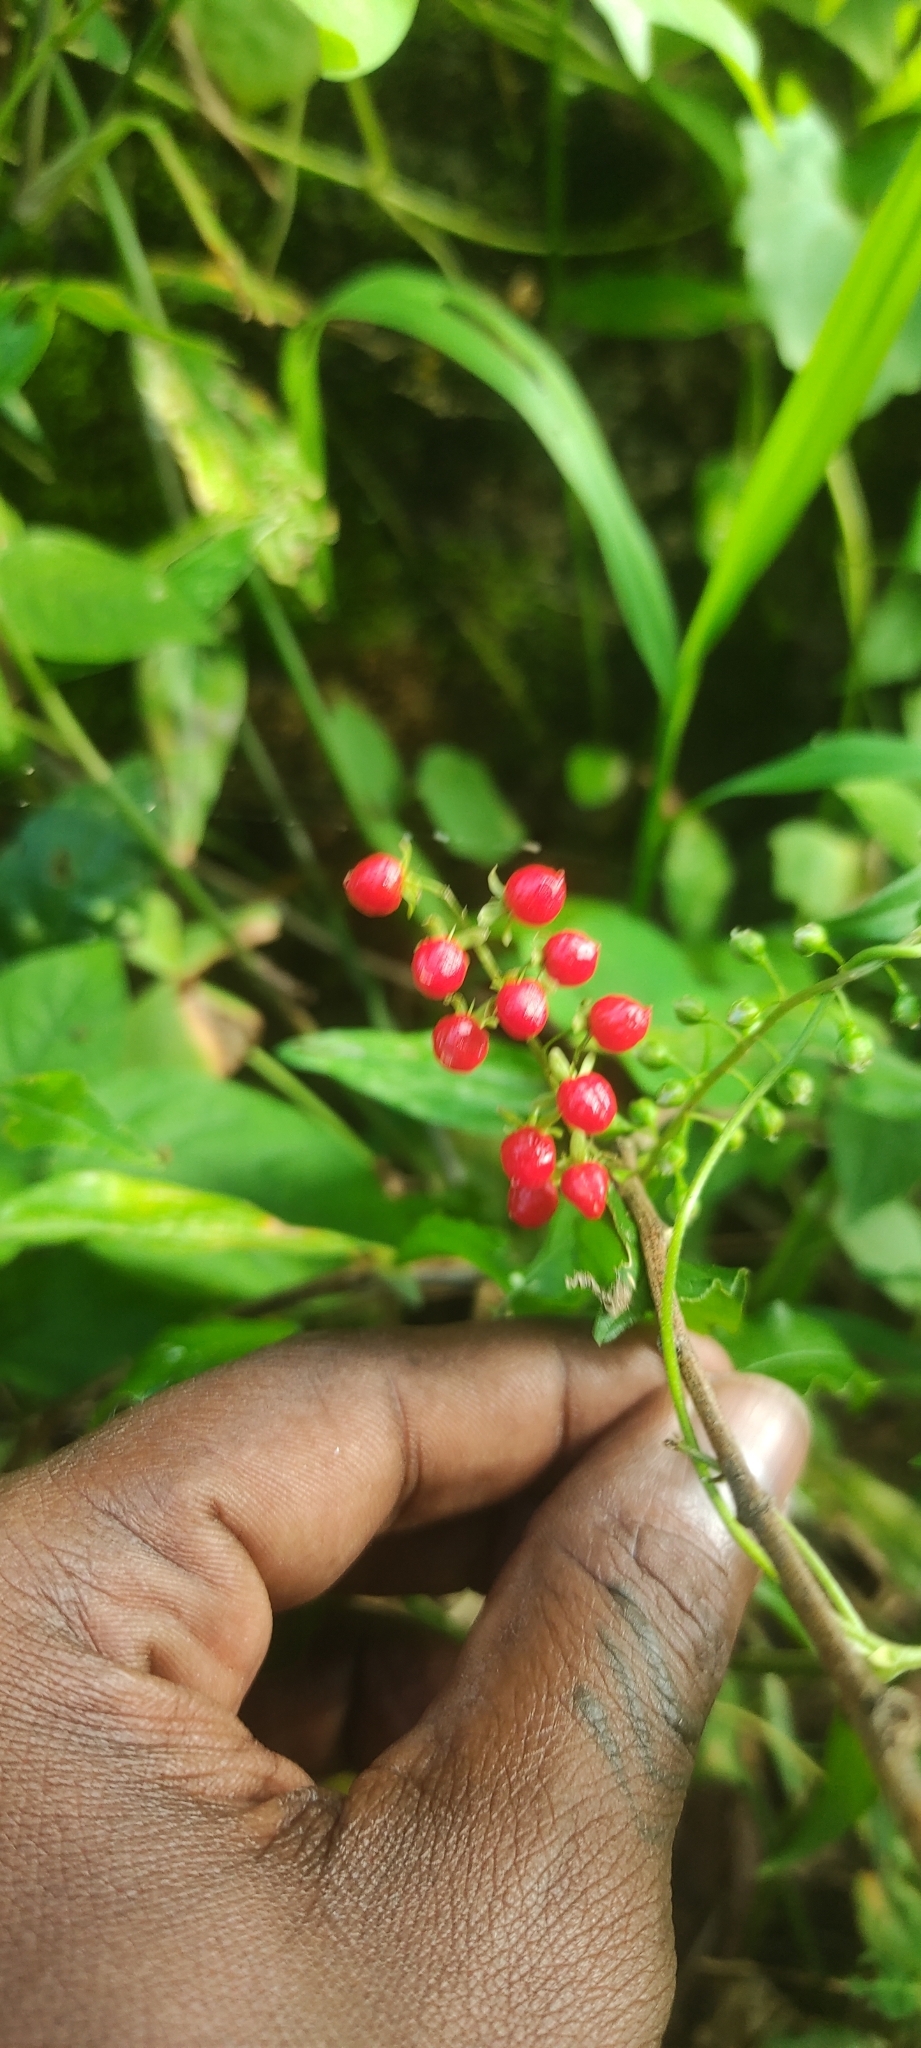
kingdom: Plantae
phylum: Tracheophyta
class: Magnoliopsida
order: Caryophyllales
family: Phytolaccaceae
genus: Rivina
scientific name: Rivina humilis
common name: Rougeplant
